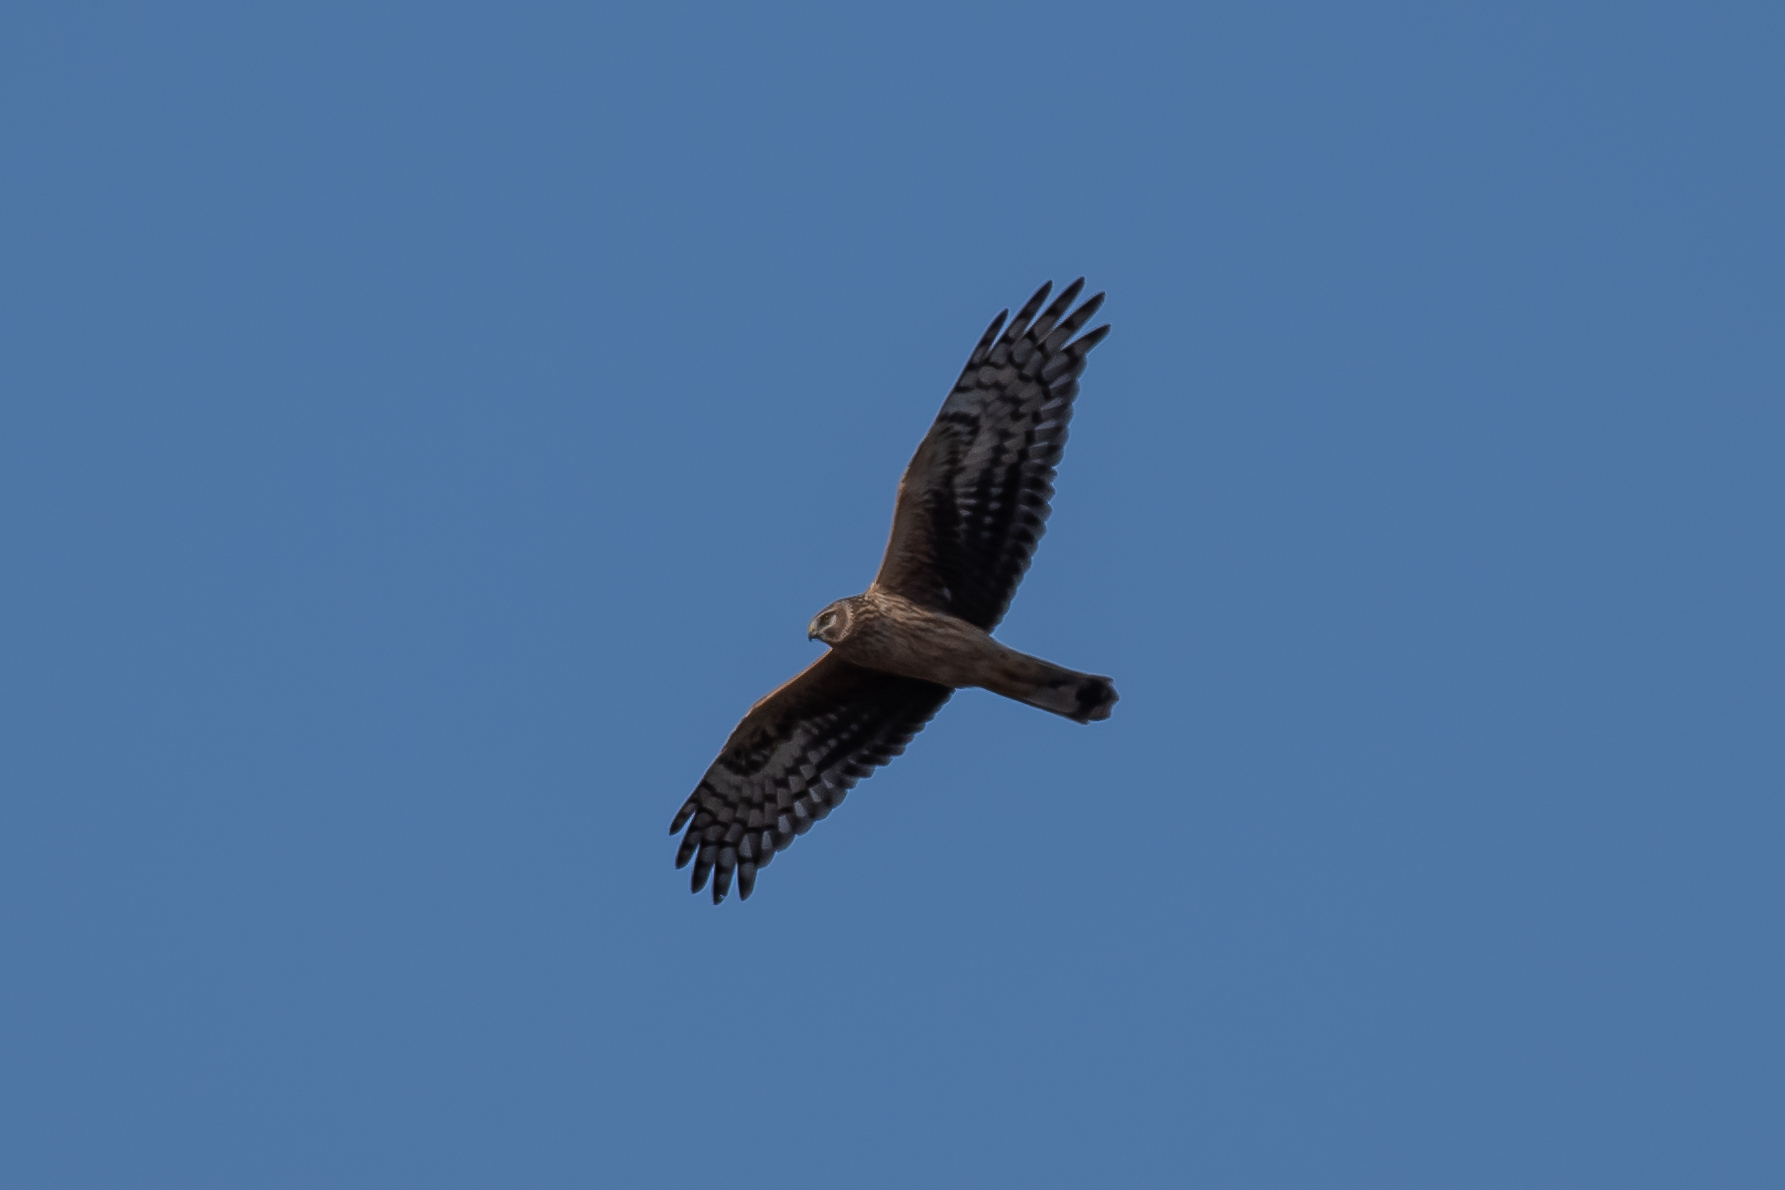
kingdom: Animalia
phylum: Chordata
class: Aves
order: Accipitriformes
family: Accipitridae
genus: Circus
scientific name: Circus cyaneus
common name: Hen harrier
